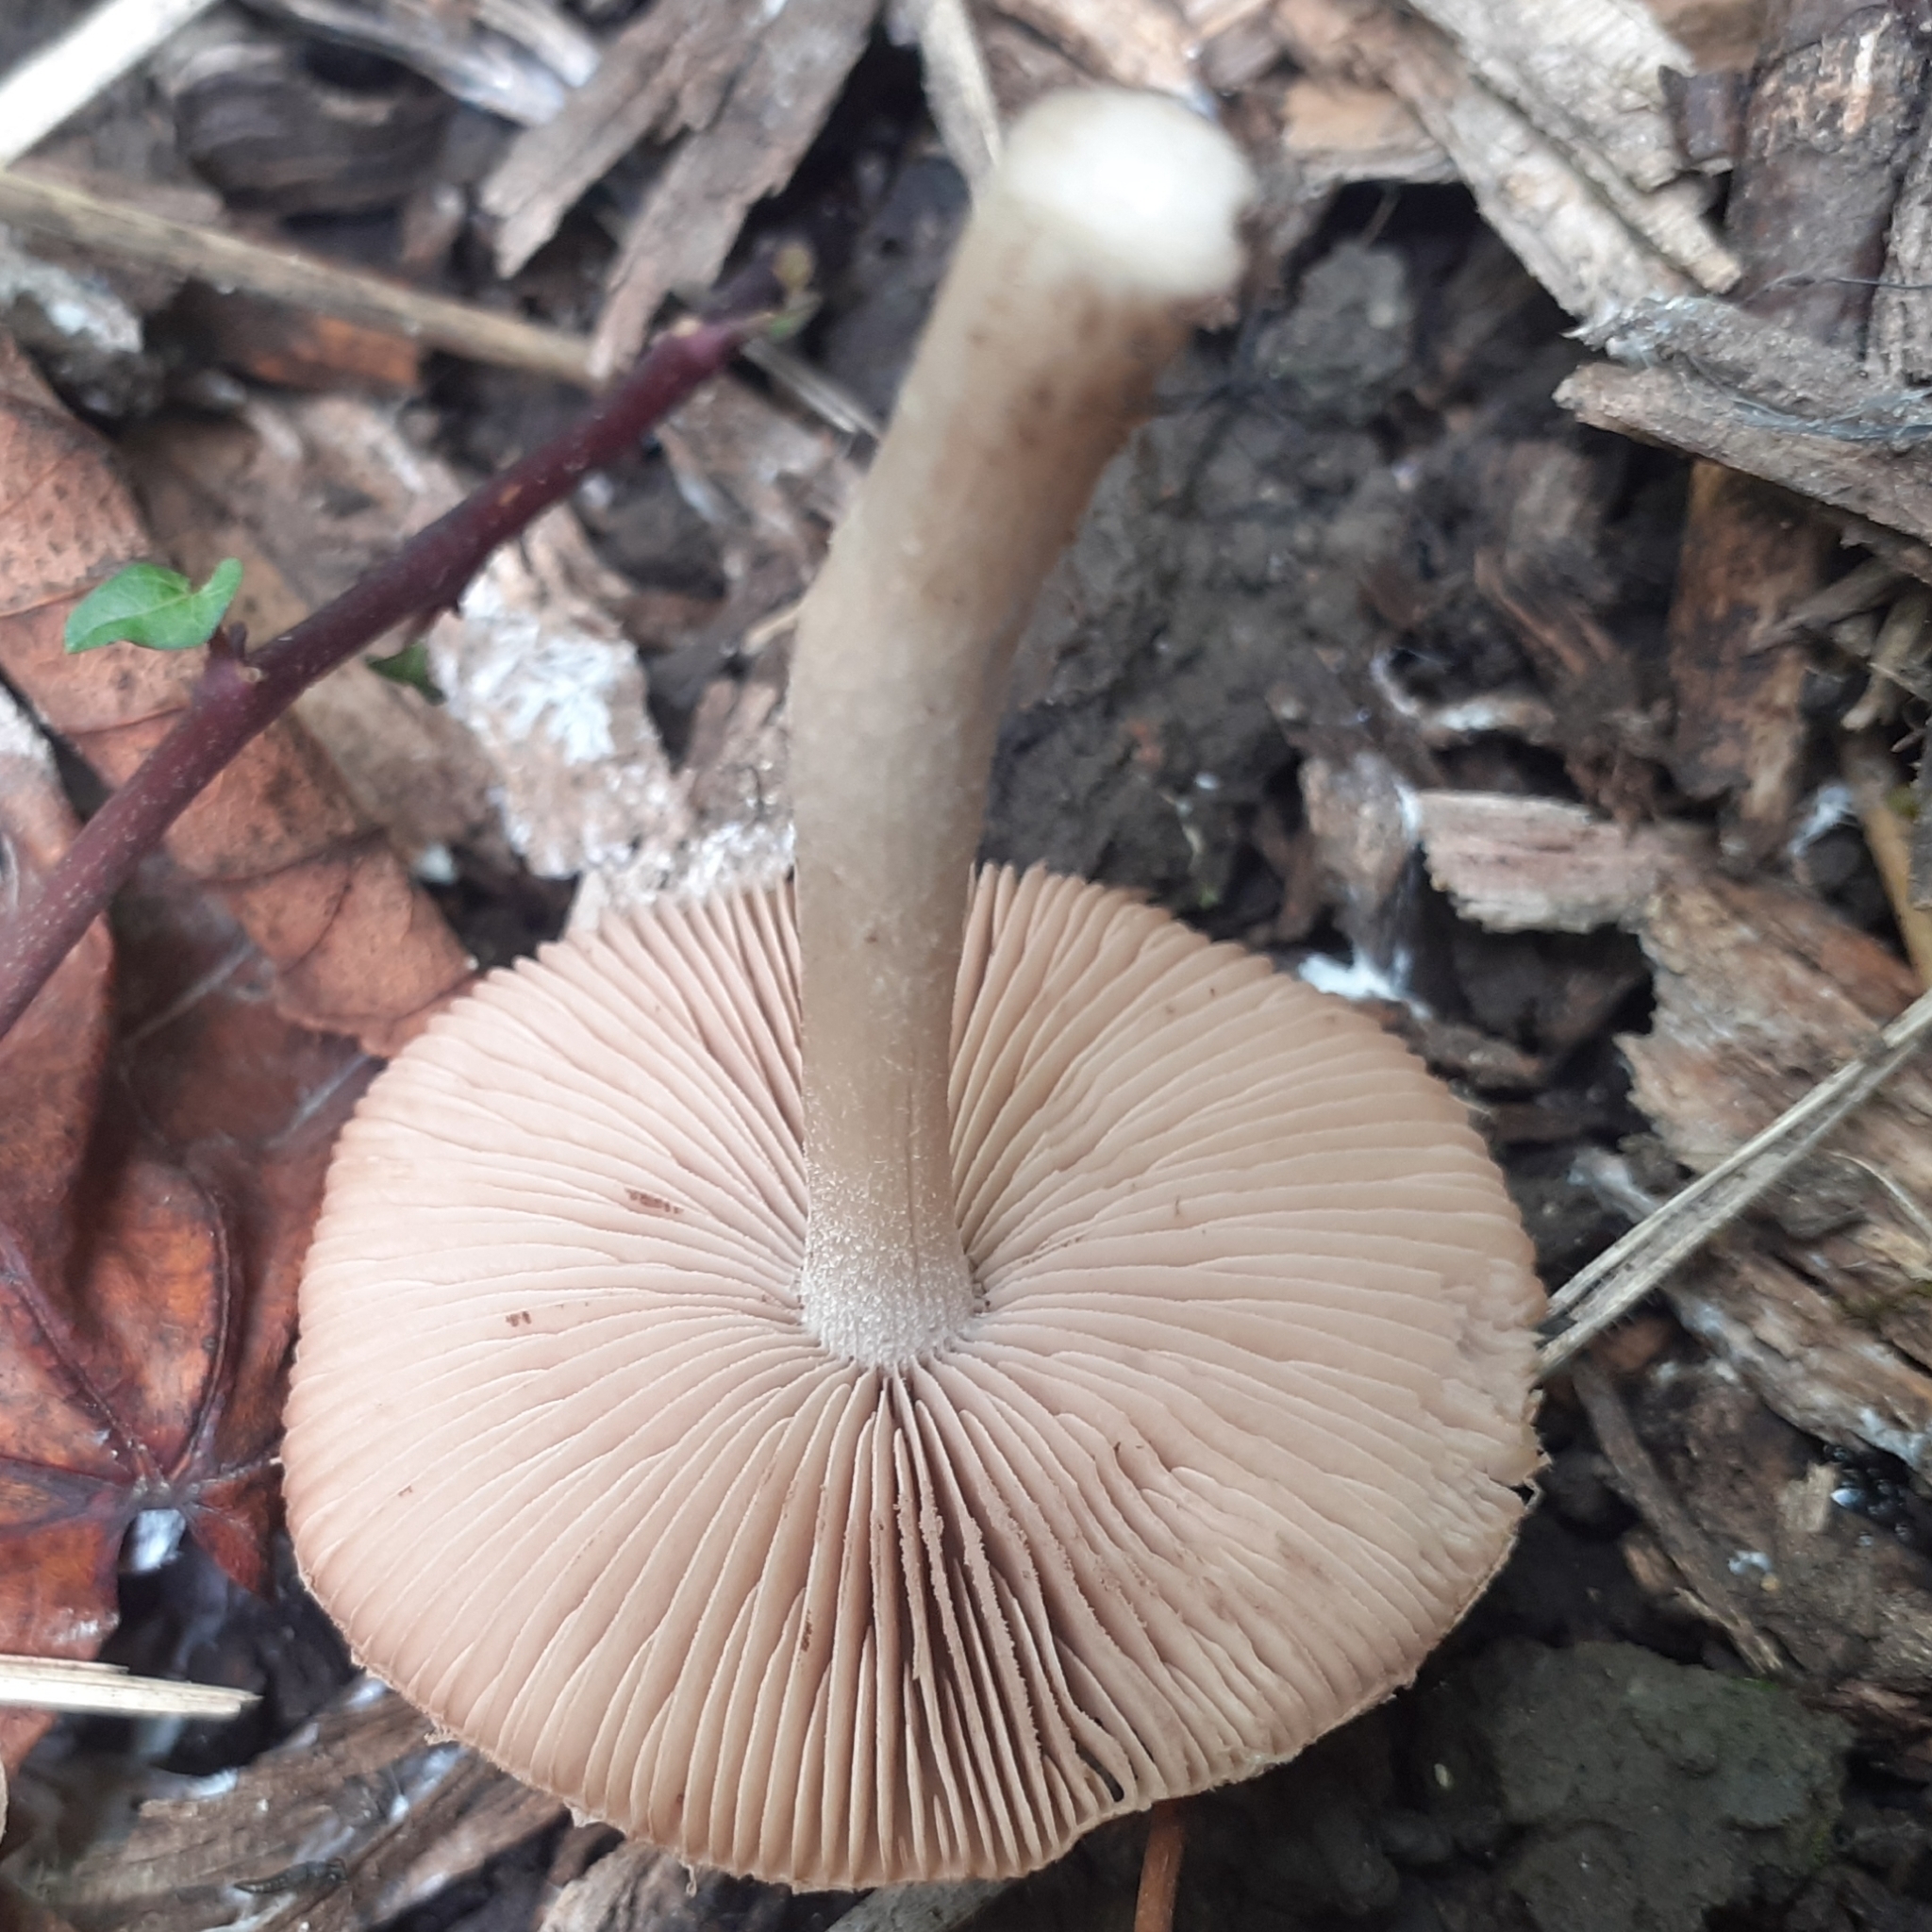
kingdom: Fungi
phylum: Basidiomycota
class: Agaricomycetes
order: Agaricales
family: Psathyrellaceae
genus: Coprinopsis
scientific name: Coprinopsis melanthina
